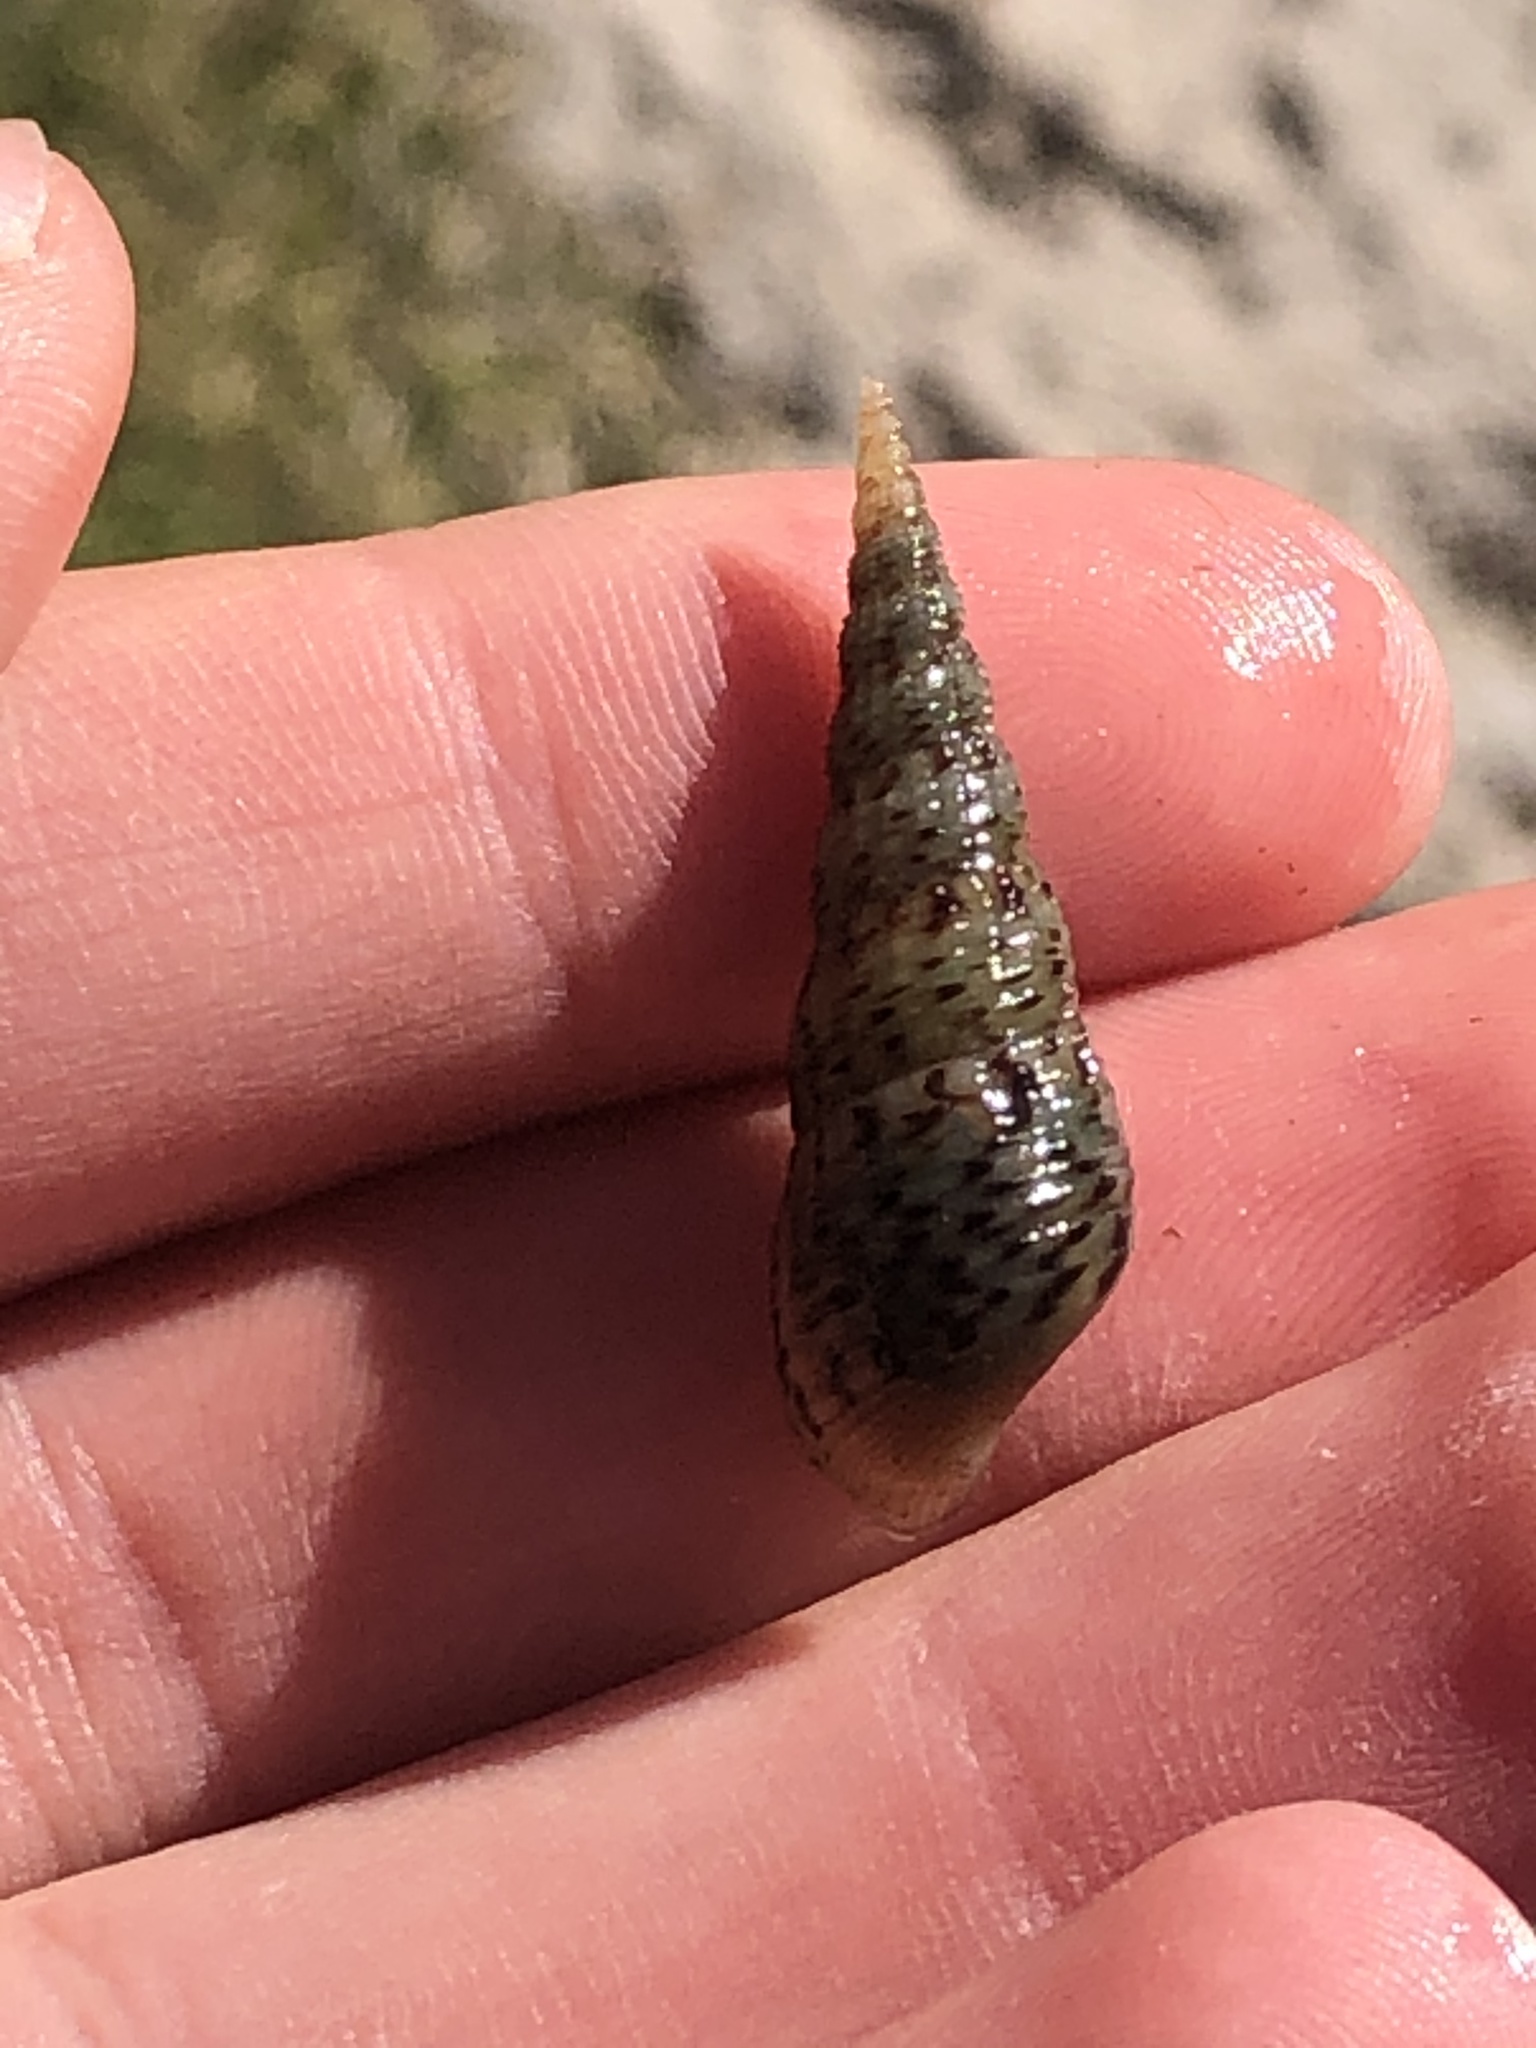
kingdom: Animalia
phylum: Mollusca
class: Gastropoda
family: Thiaridae
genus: Melanoides
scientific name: Melanoides tuberculata
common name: Red-rim melania
